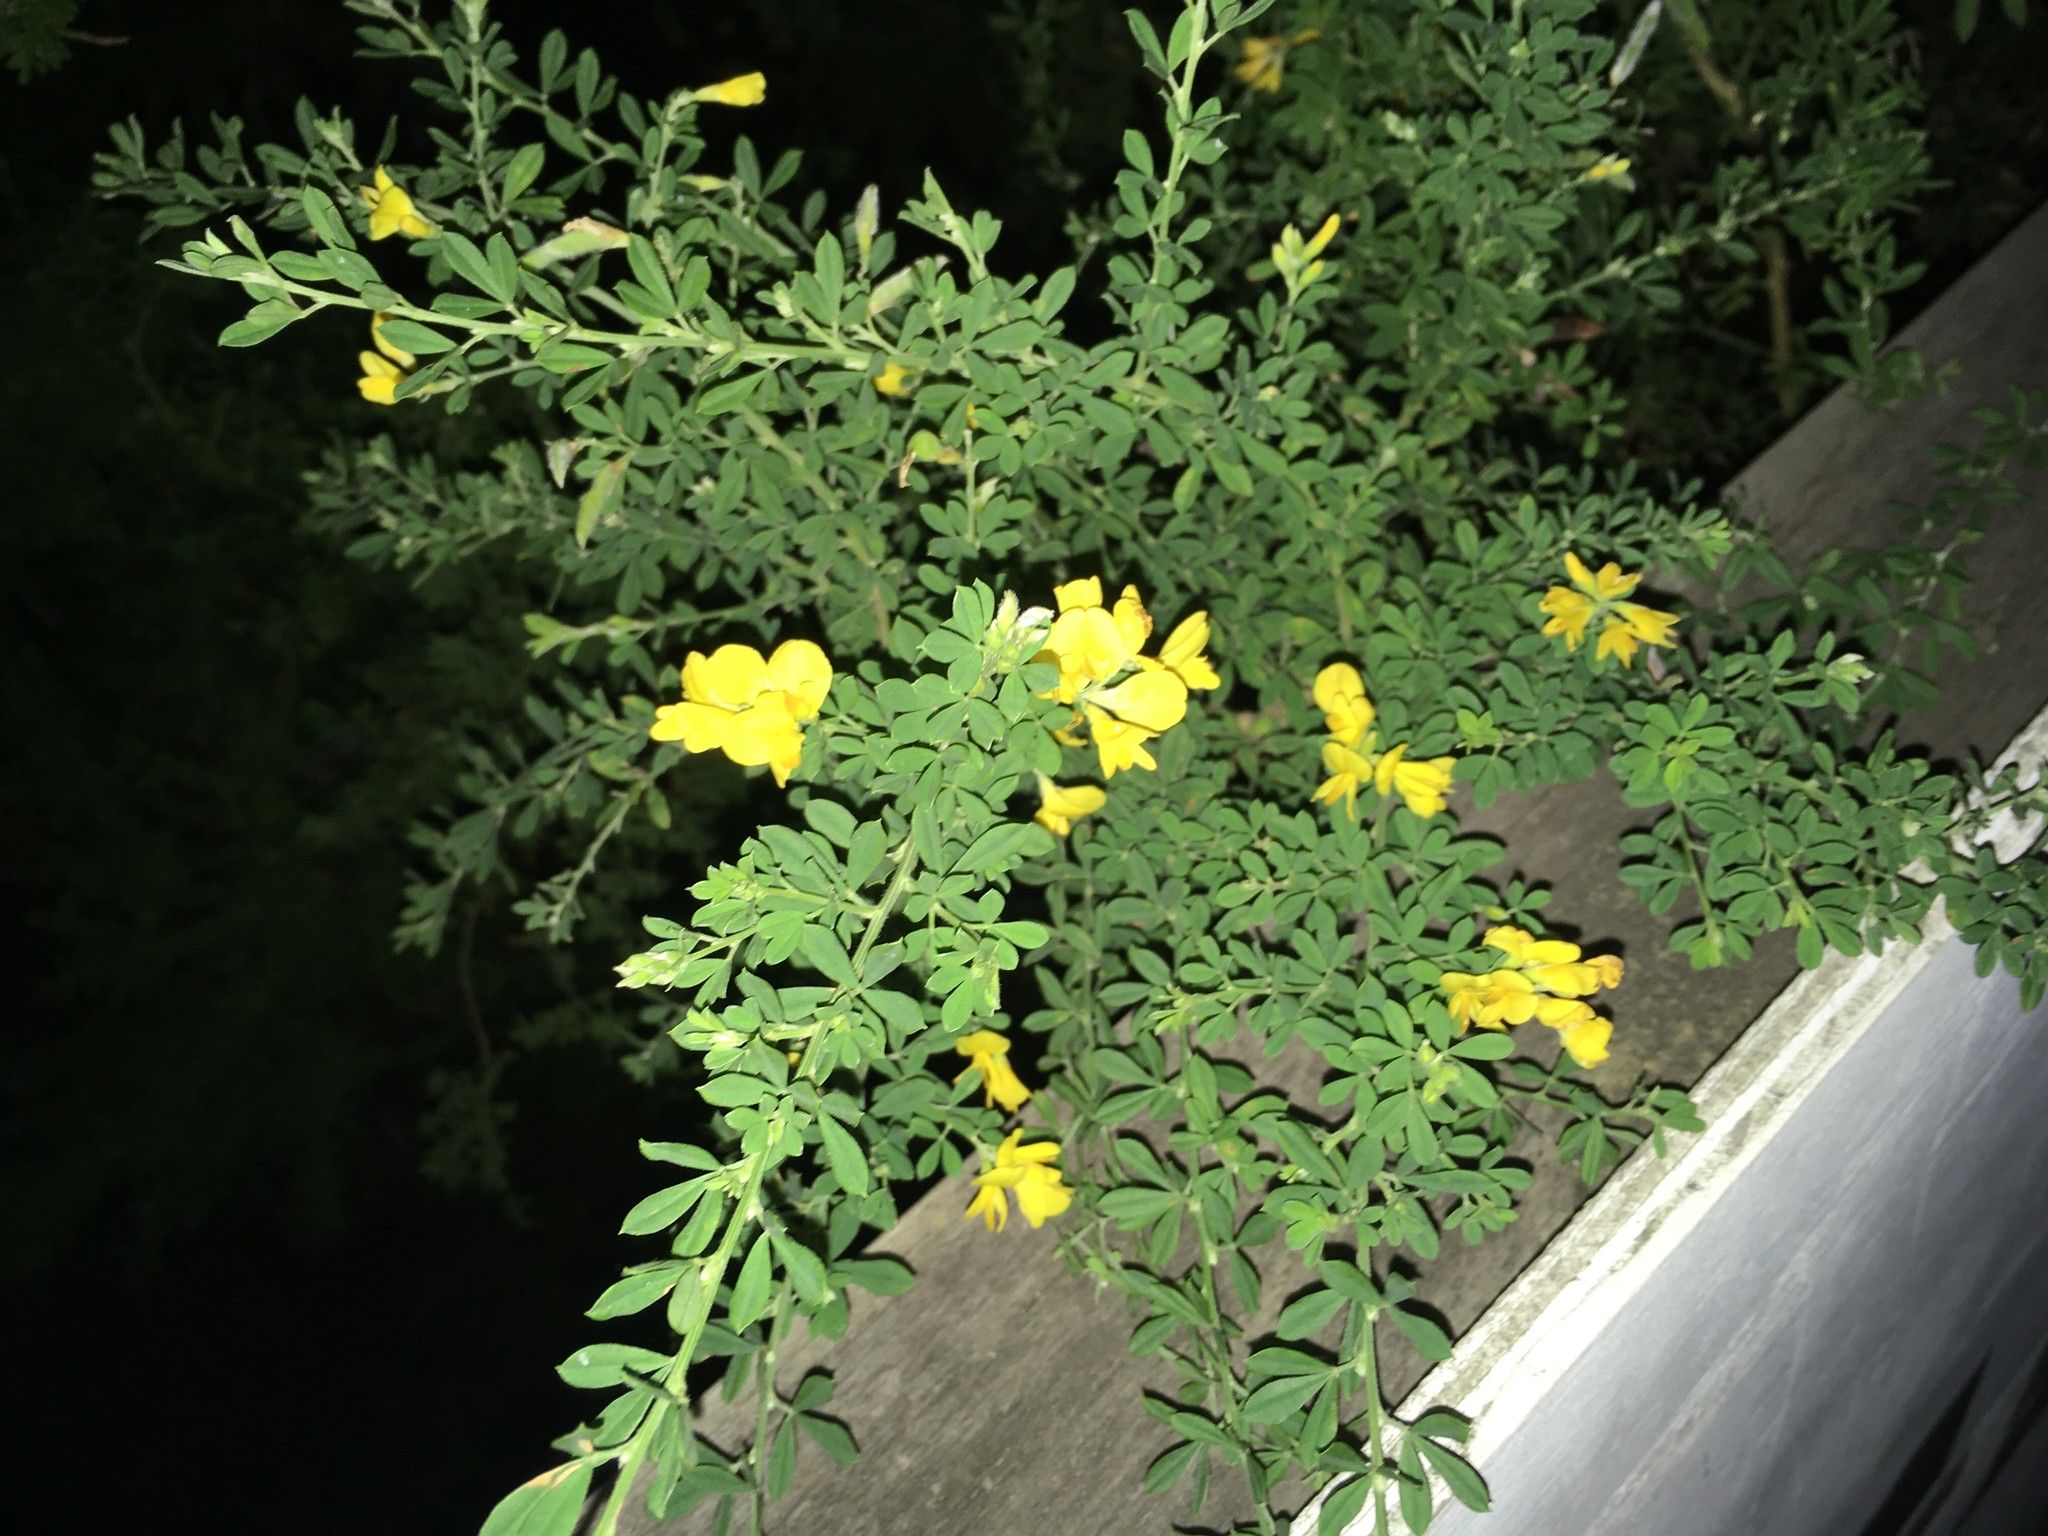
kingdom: Plantae
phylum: Tracheophyta
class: Magnoliopsida
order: Fabales
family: Fabaceae
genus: Genista
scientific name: Genista monspessulana
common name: Montpellier broom
